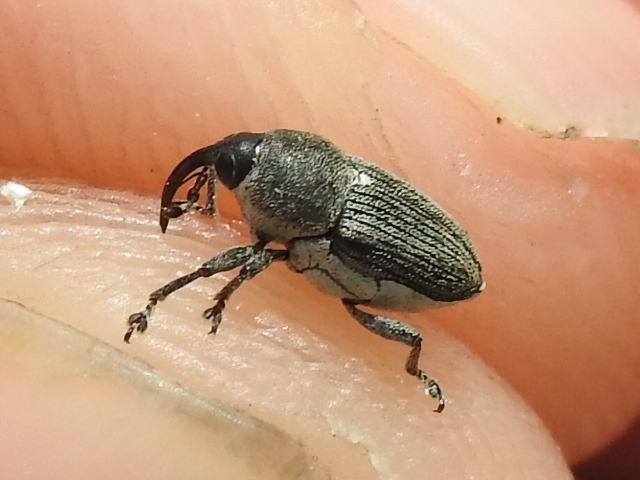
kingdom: Animalia
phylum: Arthropoda
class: Insecta
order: Coleoptera
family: Curculionidae
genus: Odontocorynus
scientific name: Odontocorynus salebrosus
